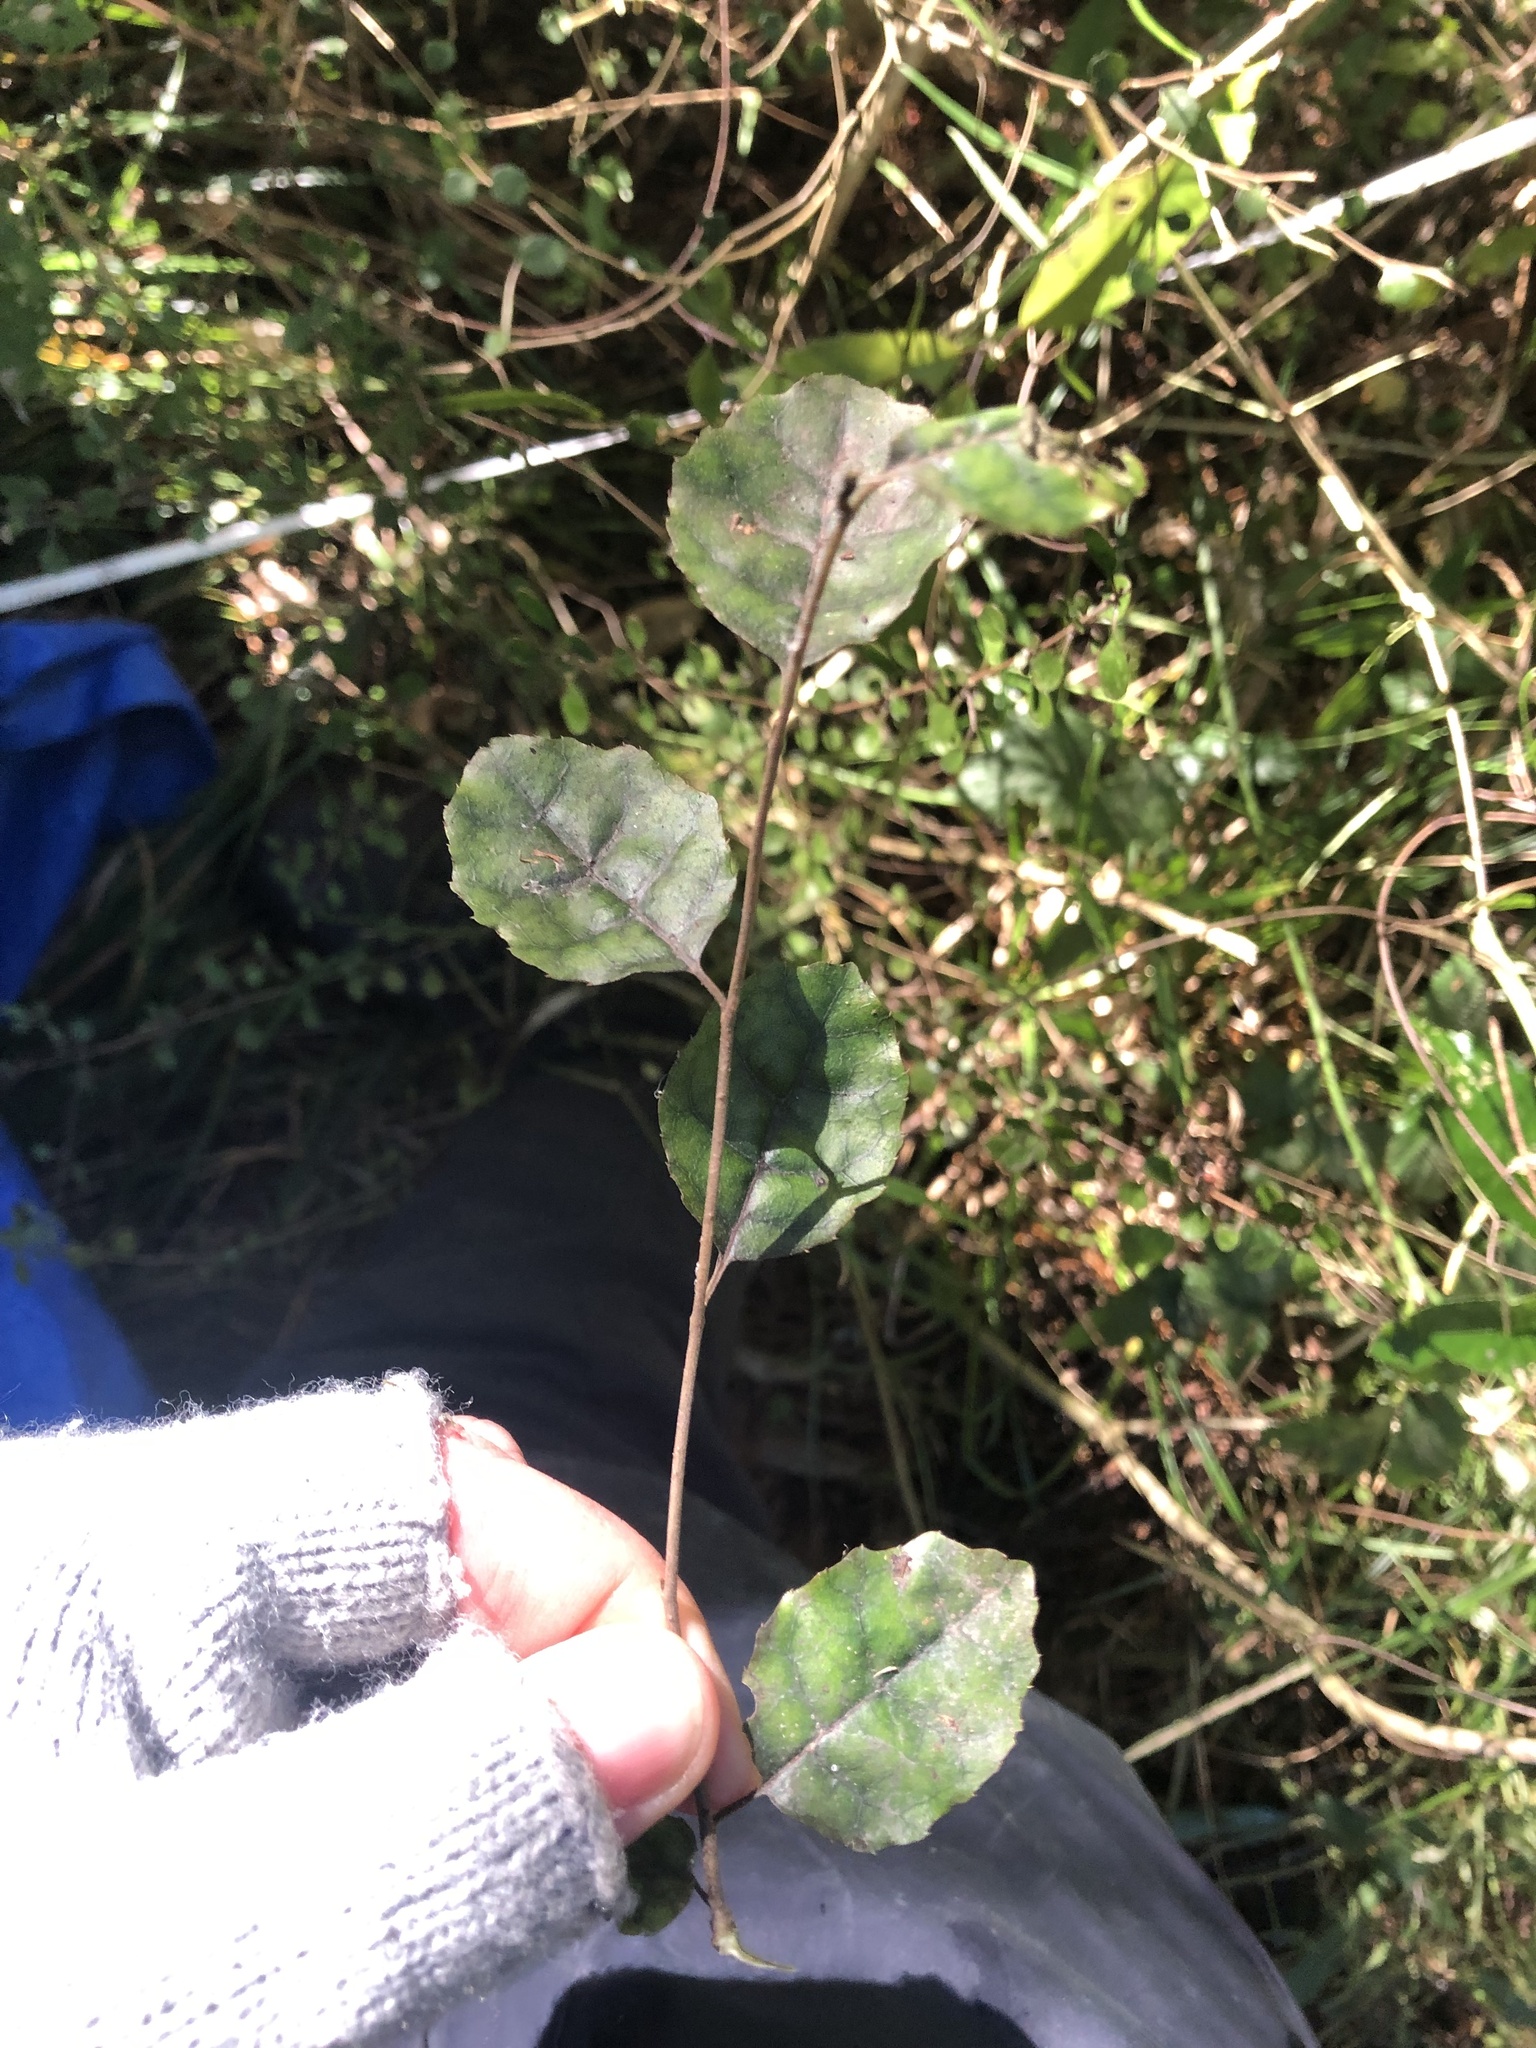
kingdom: Plantae
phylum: Tracheophyta
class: Magnoliopsida
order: Asterales
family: Rousseaceae
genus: Carpodetus
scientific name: Carpodetus serratus
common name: White mapau
